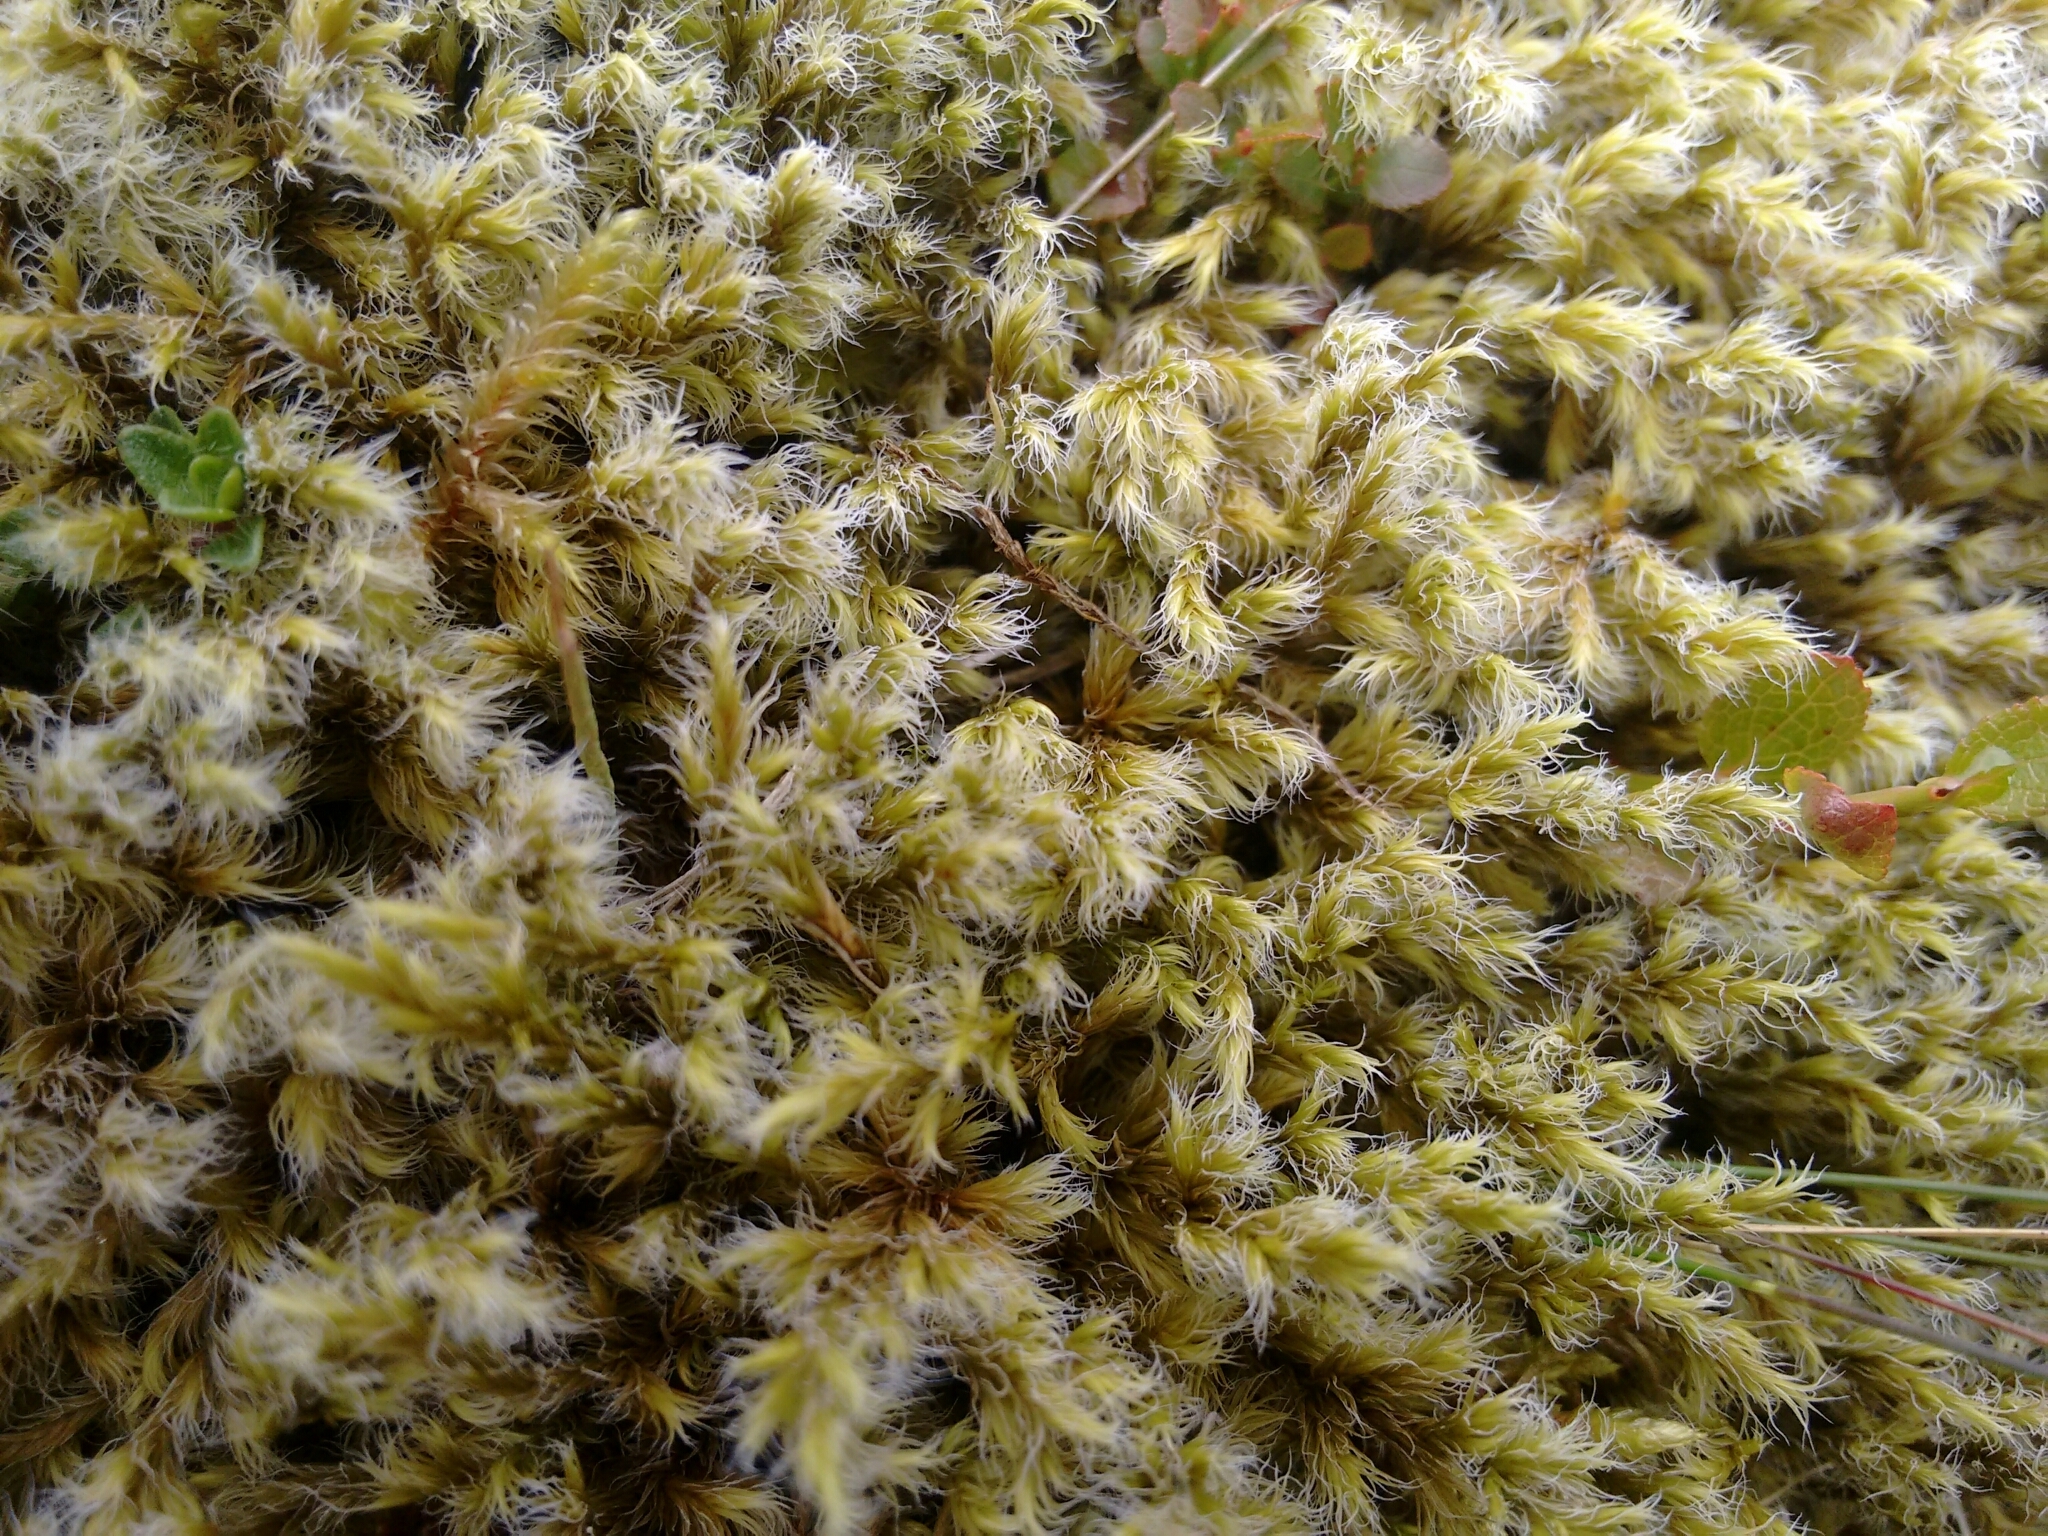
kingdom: Plantae
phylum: Bryophyta
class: Bryopsida
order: Grimmiales
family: Grimmiaceae
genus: Racomitrium
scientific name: Racomitrium lanuginosum
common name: Hoary rock moss
